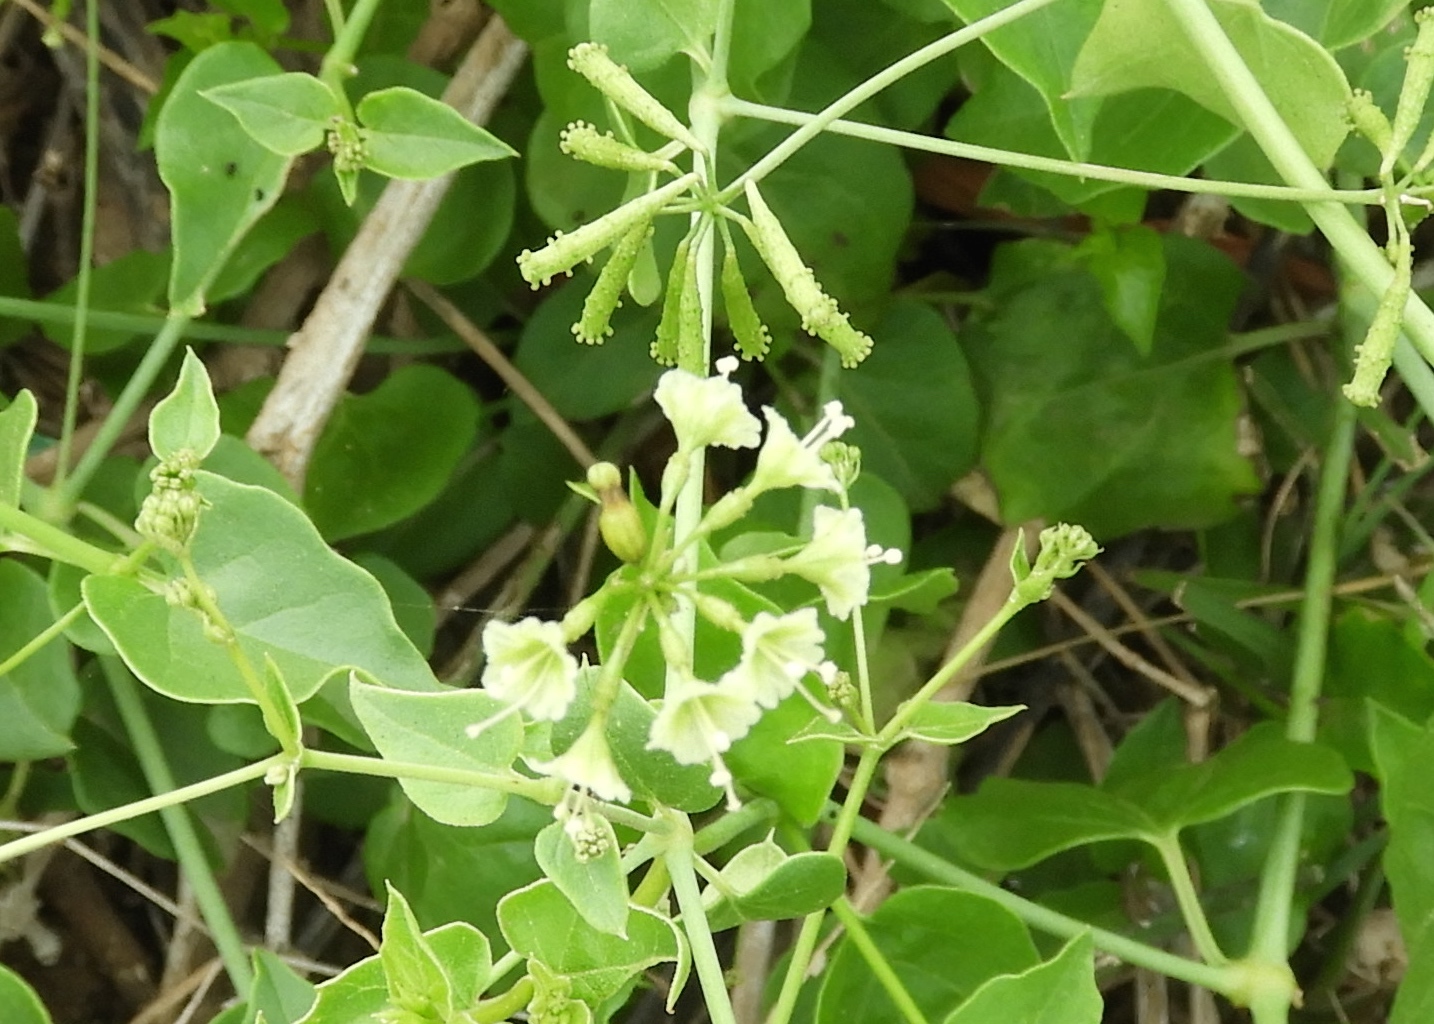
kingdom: Plantae
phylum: Tracheophyta
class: Magnoliopsida
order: Caryophyllales
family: Nyctaginaceae
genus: Commicarpus
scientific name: Commicarpus scandens
